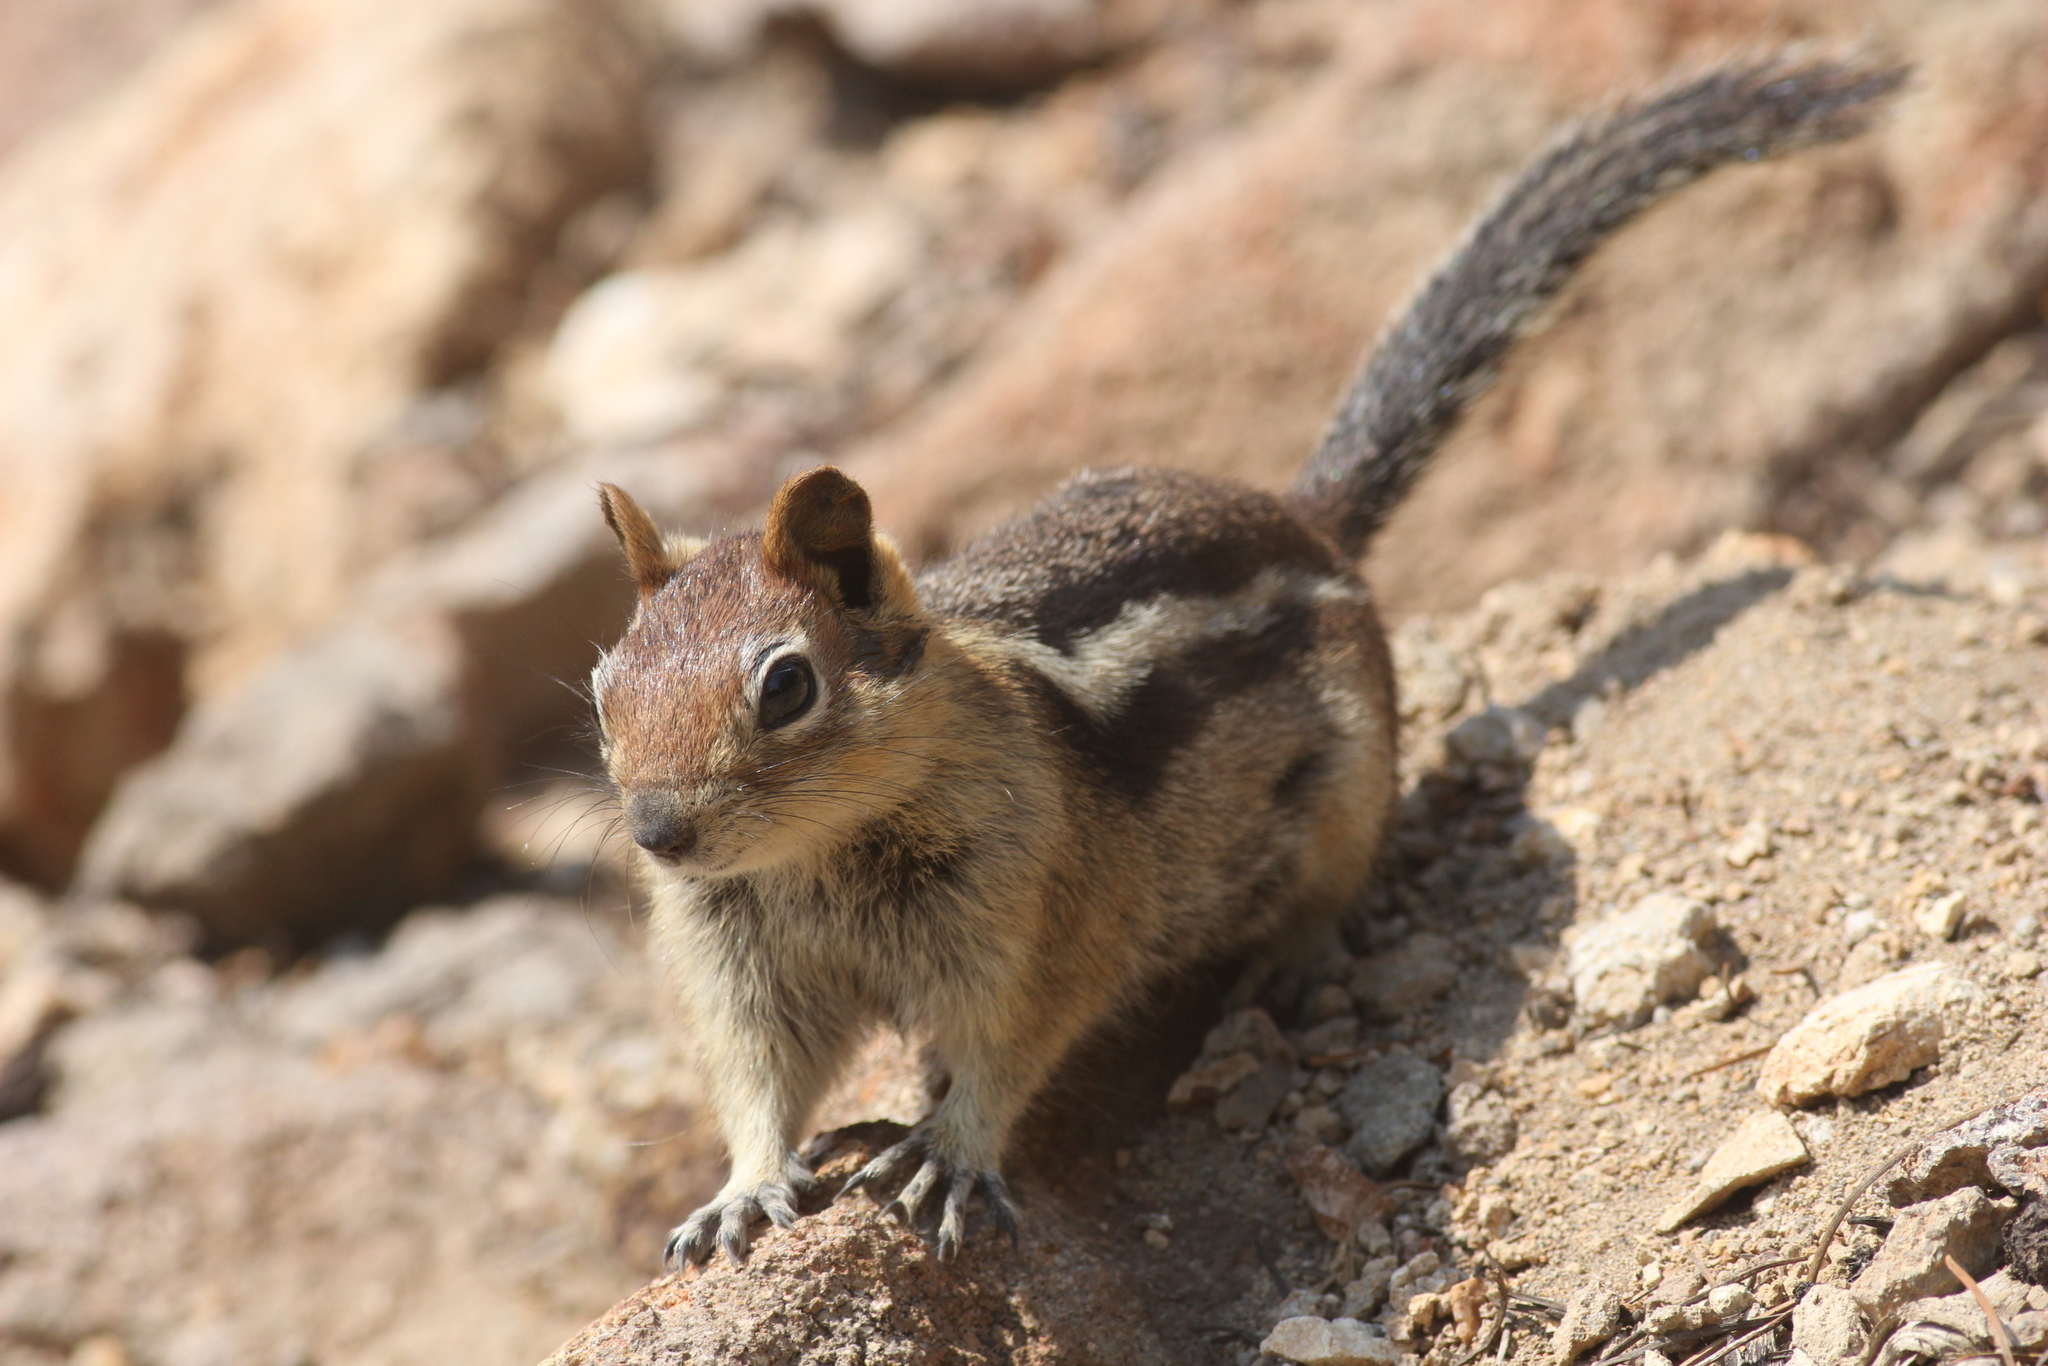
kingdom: Animalia
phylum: Chordata
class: Mammalia
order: Rodentia
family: Sciuridae
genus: Callospermophilus
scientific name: Callospermophilus lateralis
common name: Golden-mantled ground squirrel
